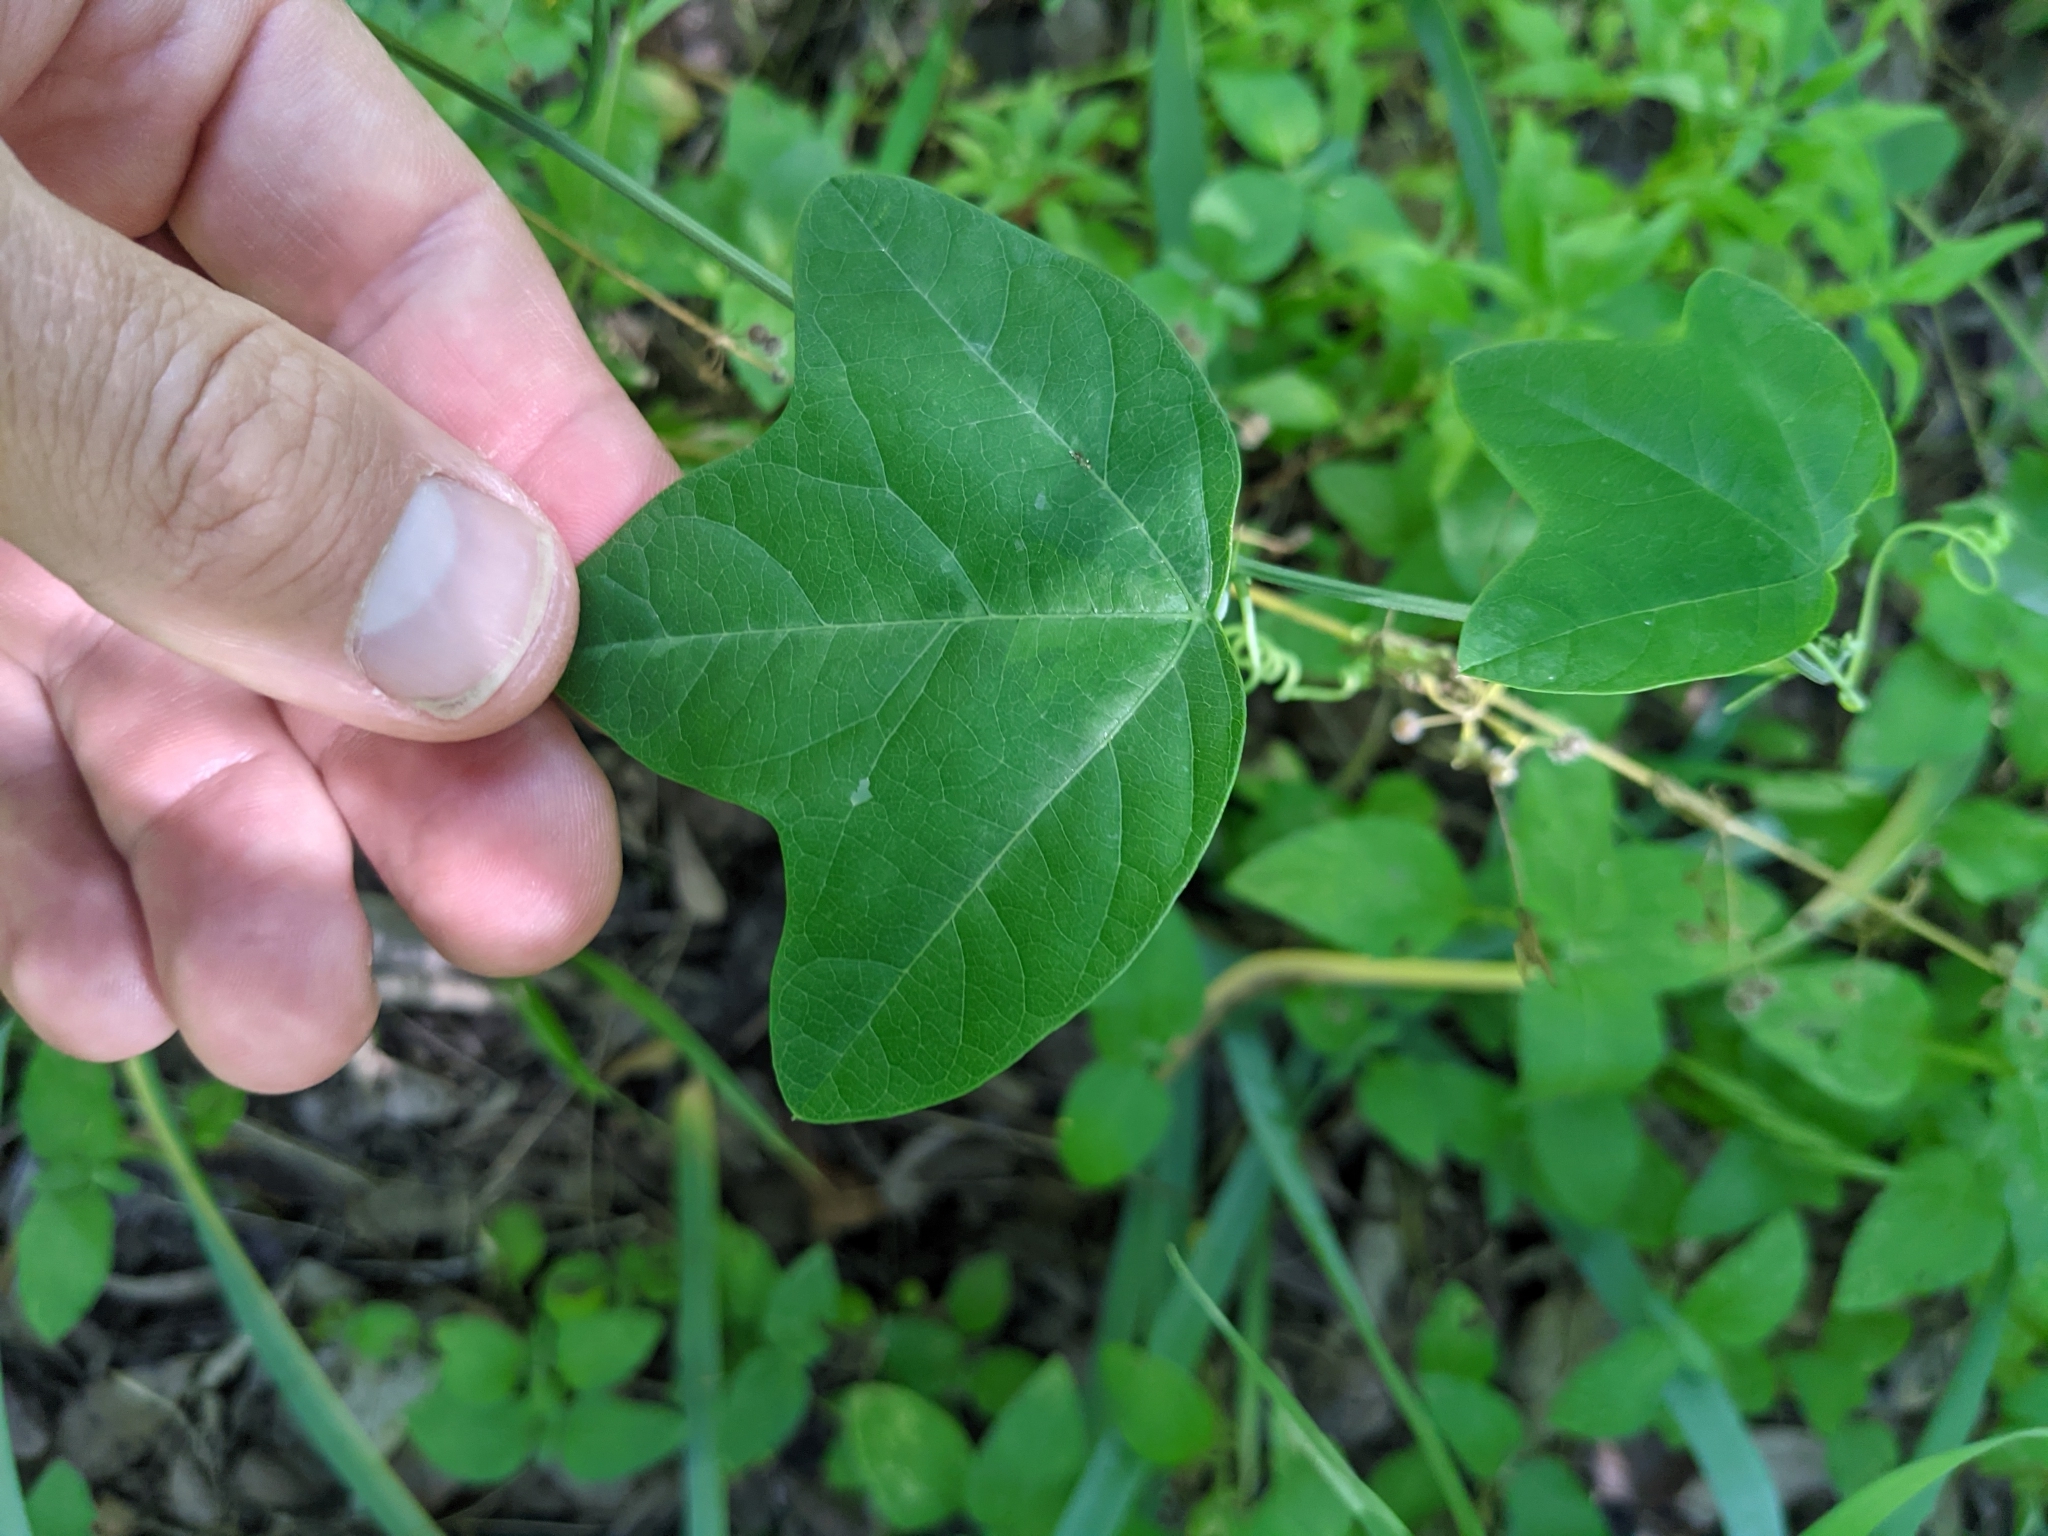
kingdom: Plantae
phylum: Tracheophyta
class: Magnoliopsida
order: Malpighiales
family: Passifloraceae
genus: Passiflora
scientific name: Passiflora lutea
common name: Yellow passionflower
